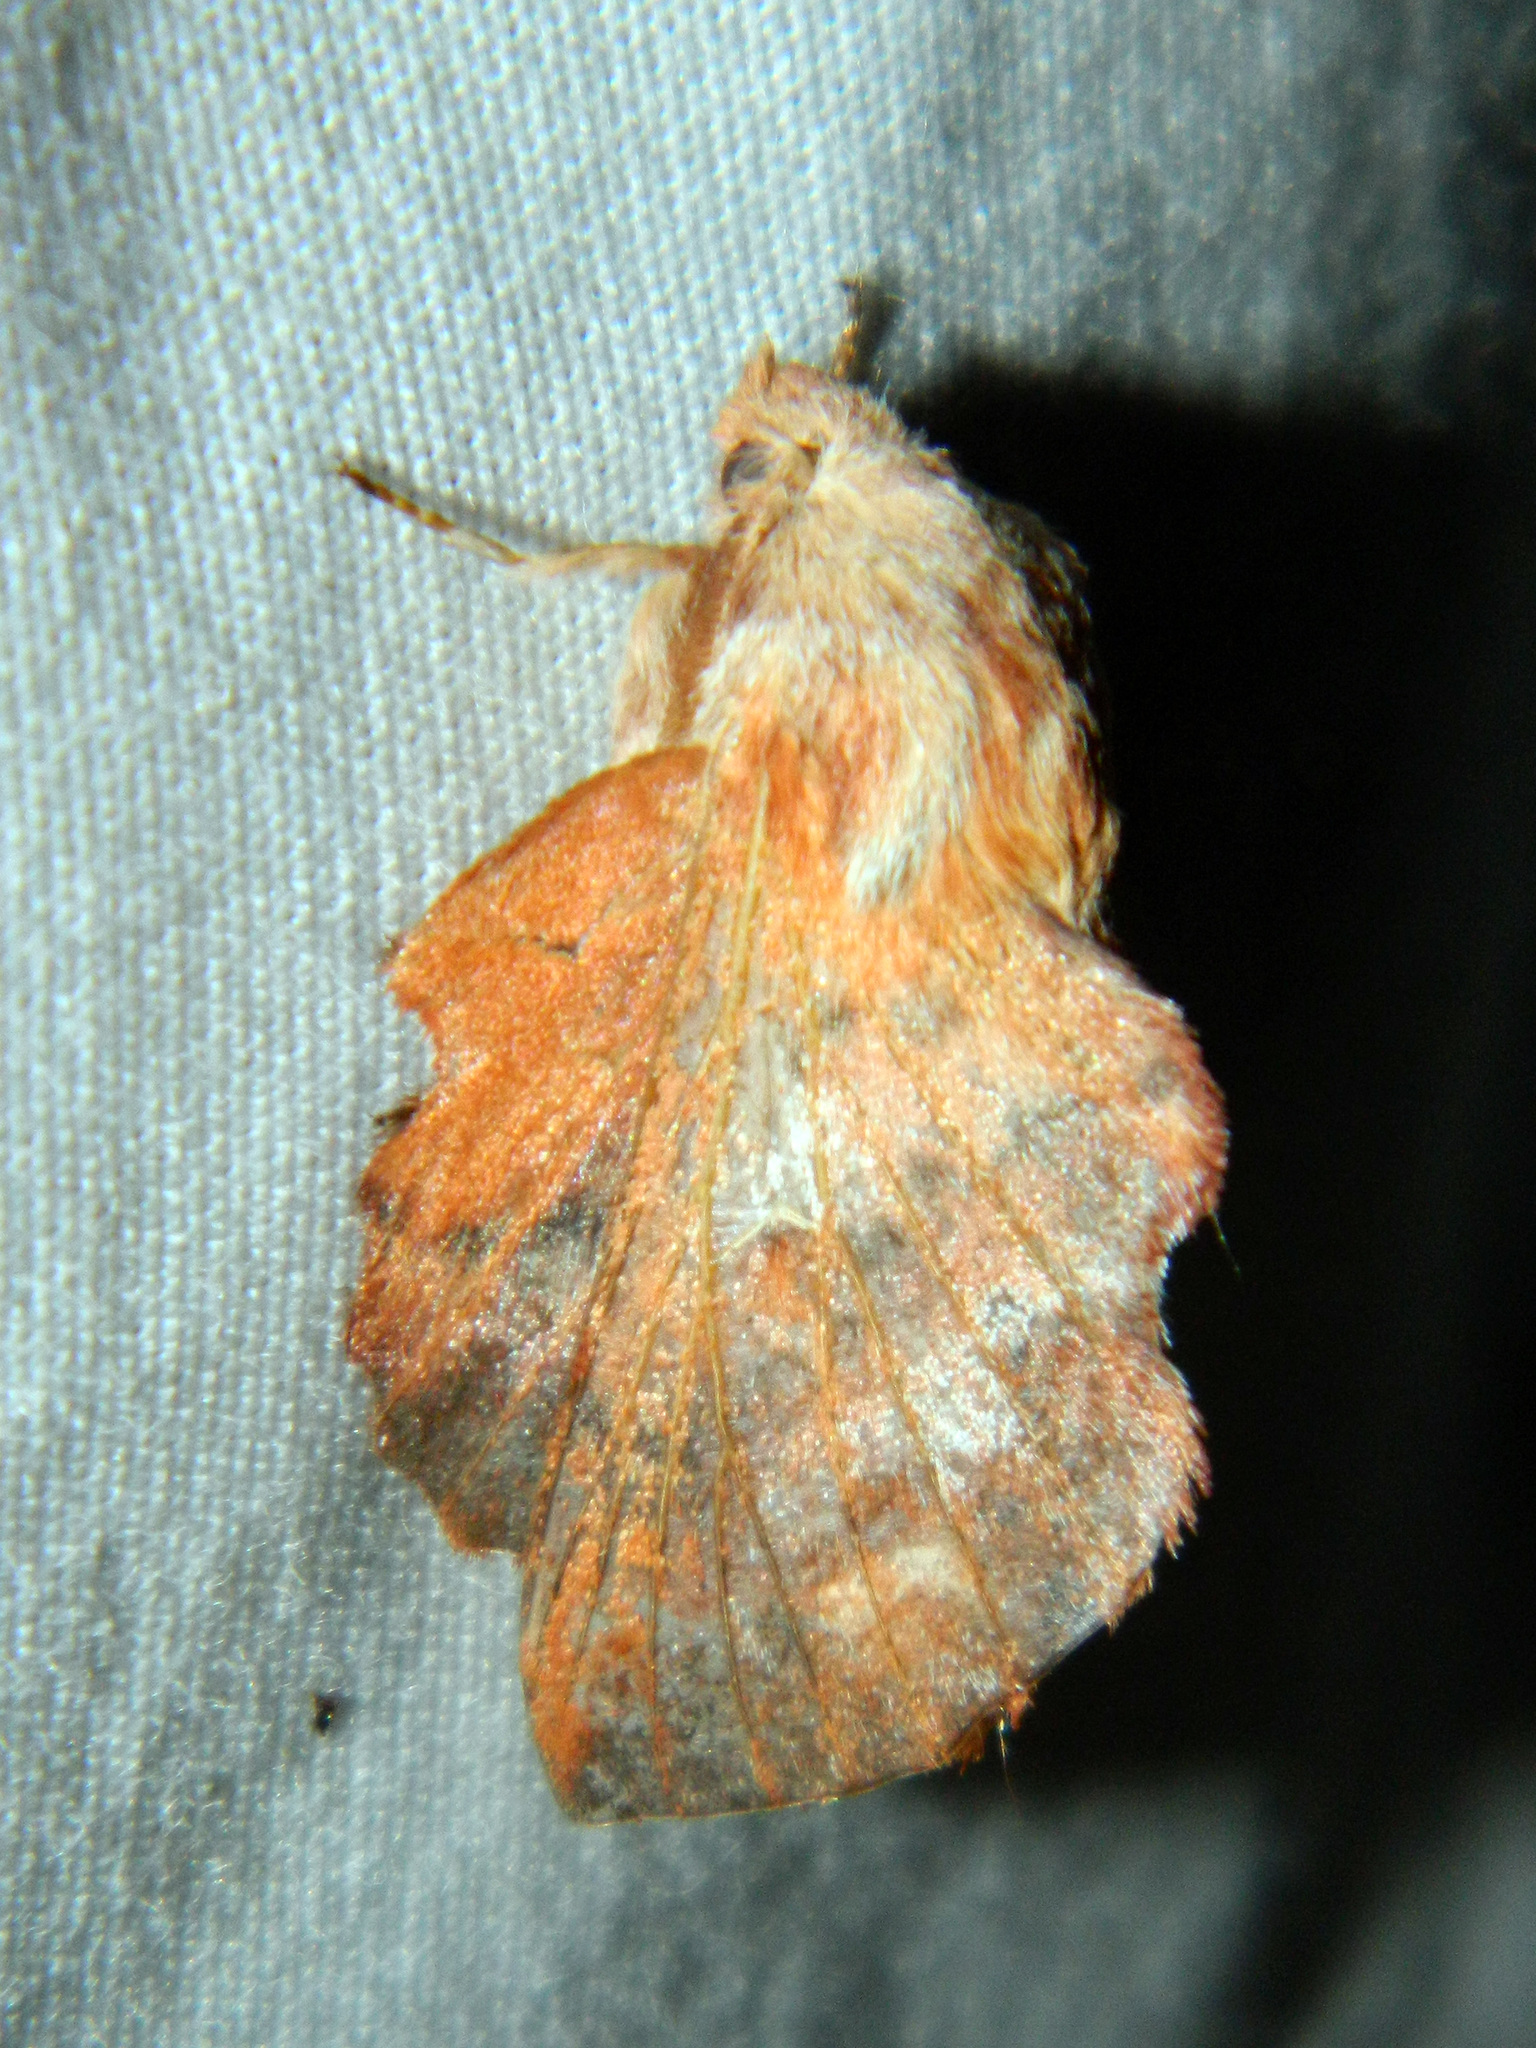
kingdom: Animalia
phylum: Arthropoda
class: Insecta
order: Lepidoptera
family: Lasiocampidae
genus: Phyllodesma
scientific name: Phyllodesma americana
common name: American lappet moth
